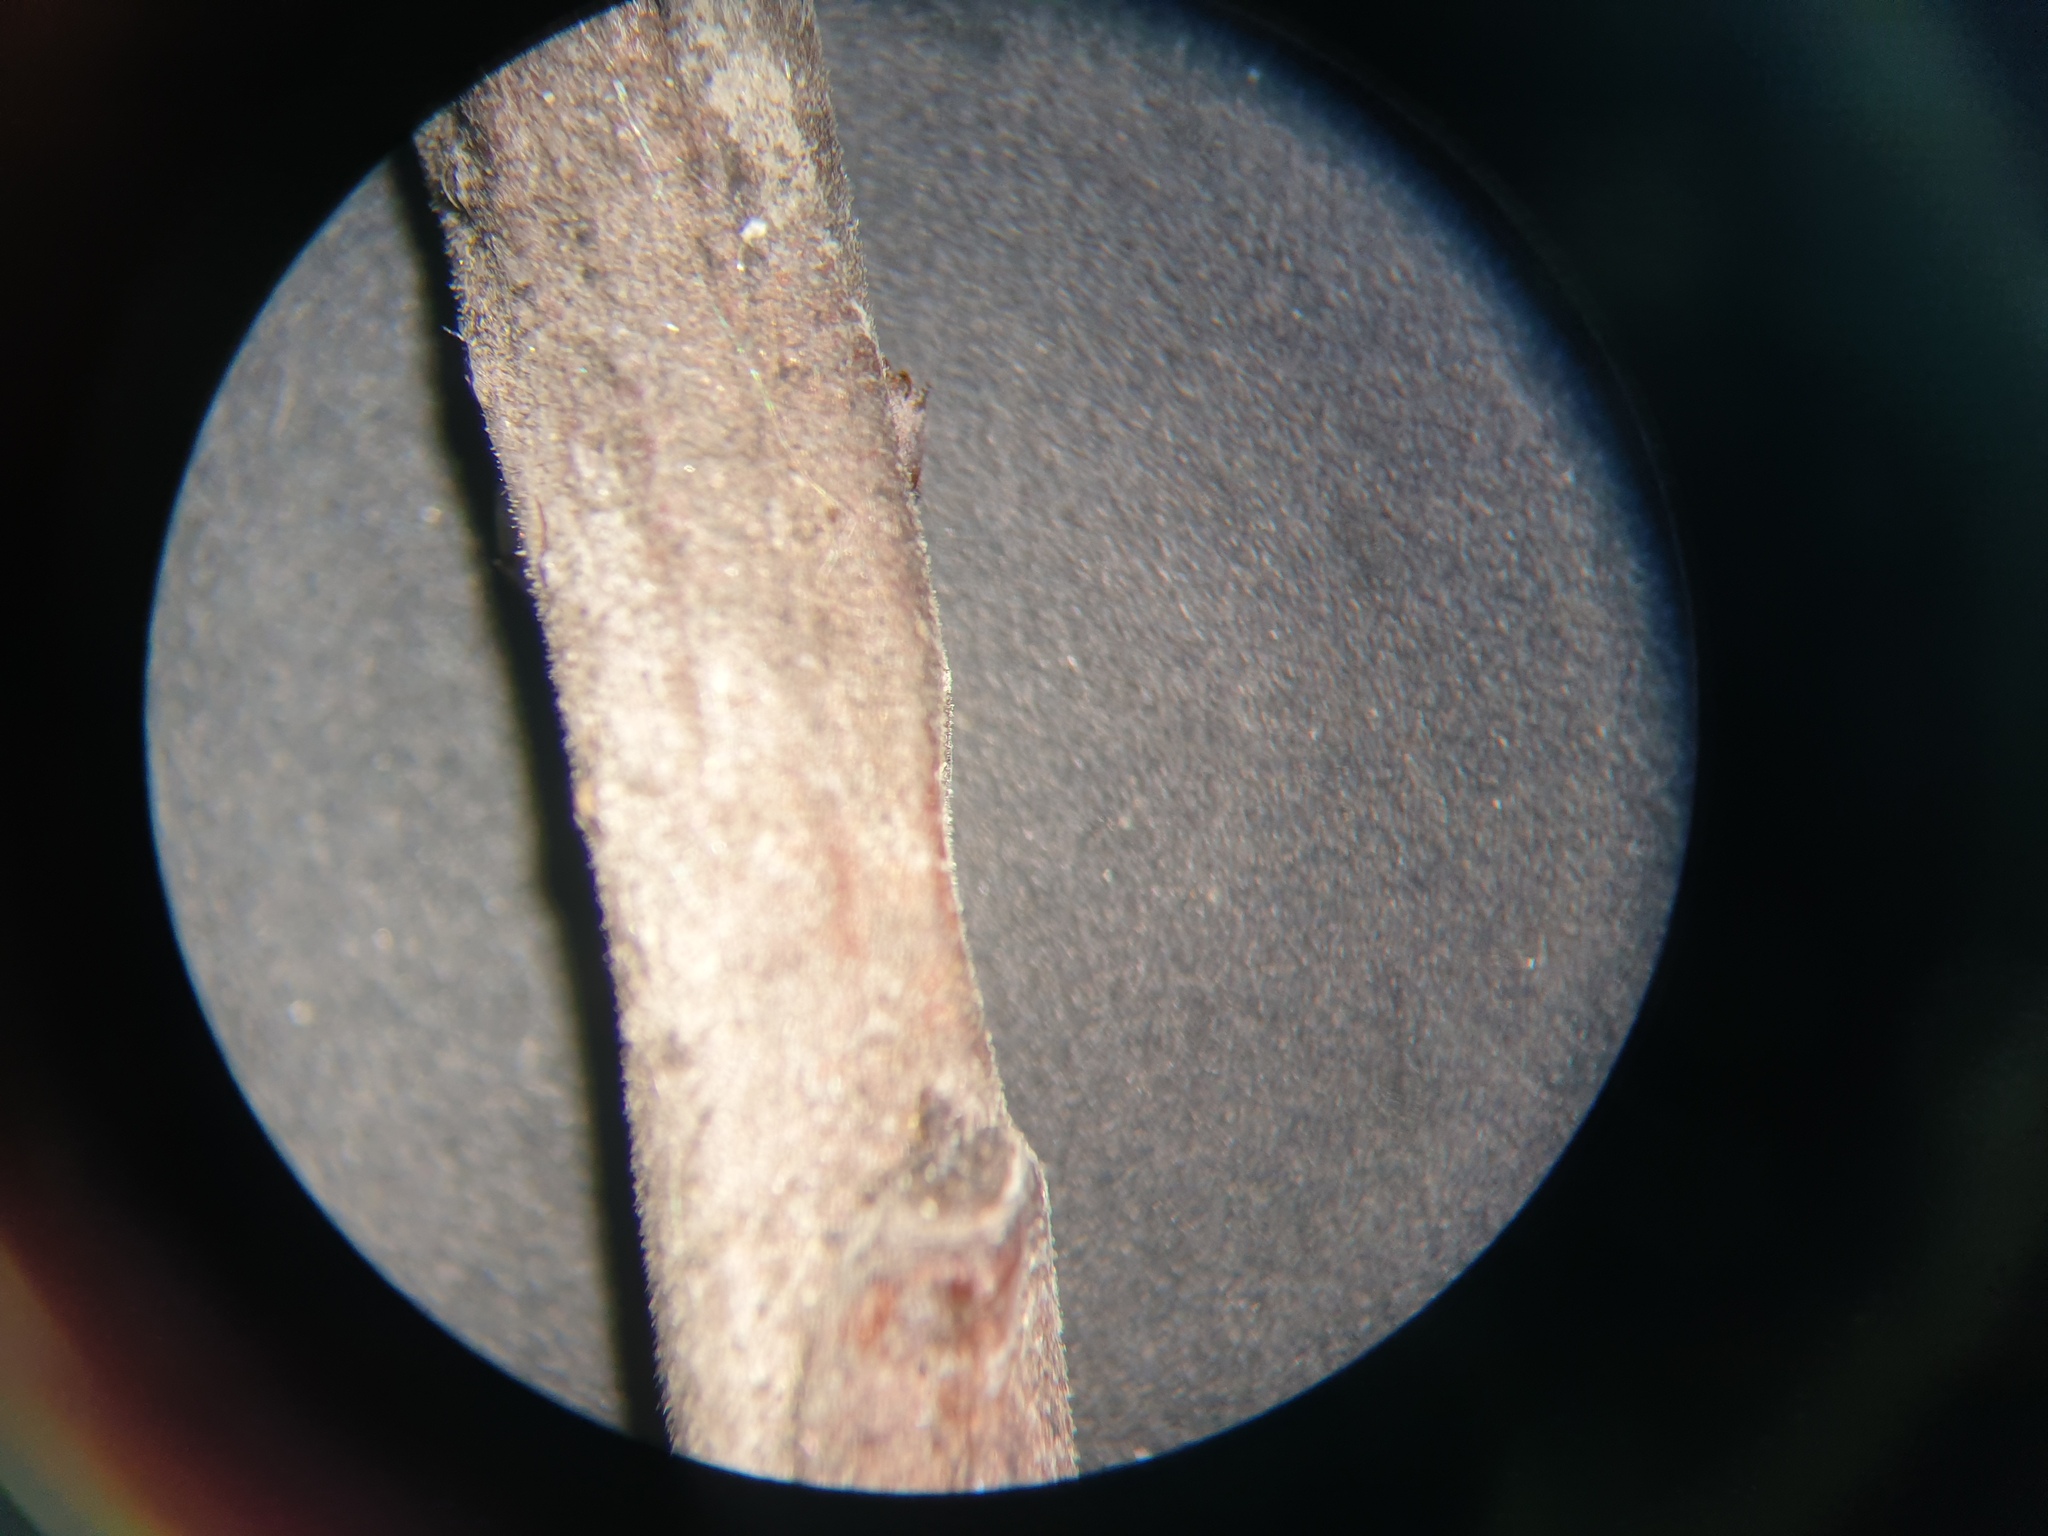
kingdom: Plantae
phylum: Tracheophyta
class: Magnoliopsida
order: Rosales
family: Rosaceae
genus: Prunus
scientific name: Prunus susquehanae
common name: Sesquehana sandcherry
